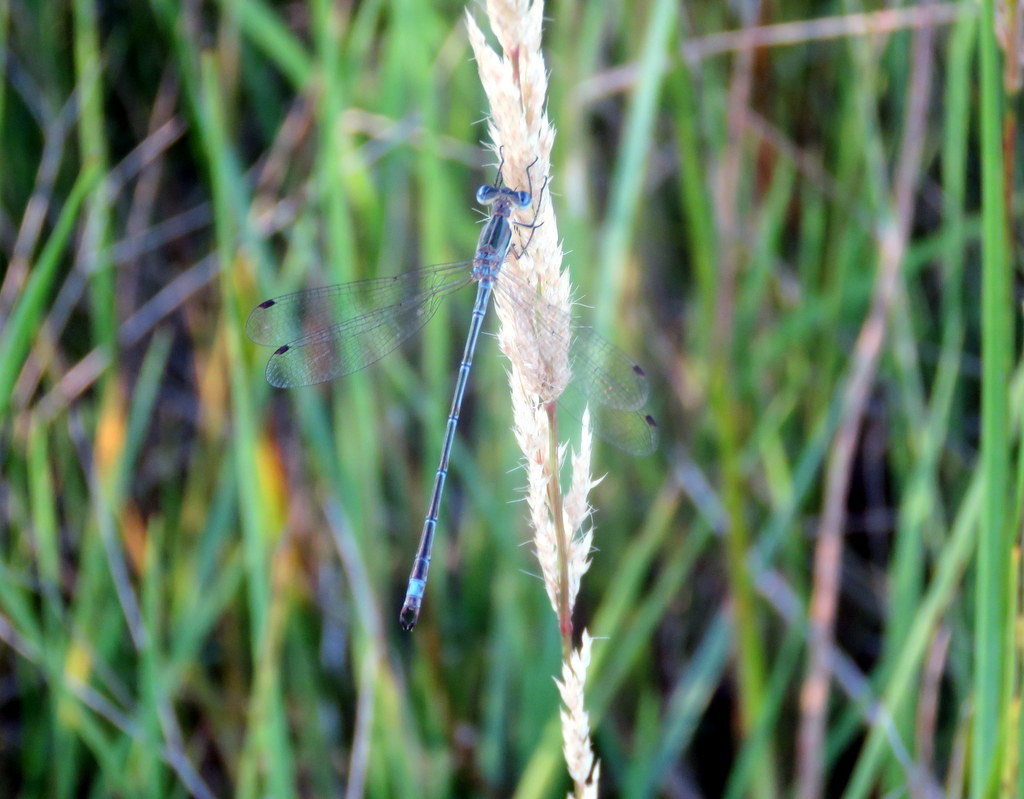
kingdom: Animalia
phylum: Arthropoda
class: Insecta
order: Odonata
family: Lestidae
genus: Lestes
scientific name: Lestes undulatus
